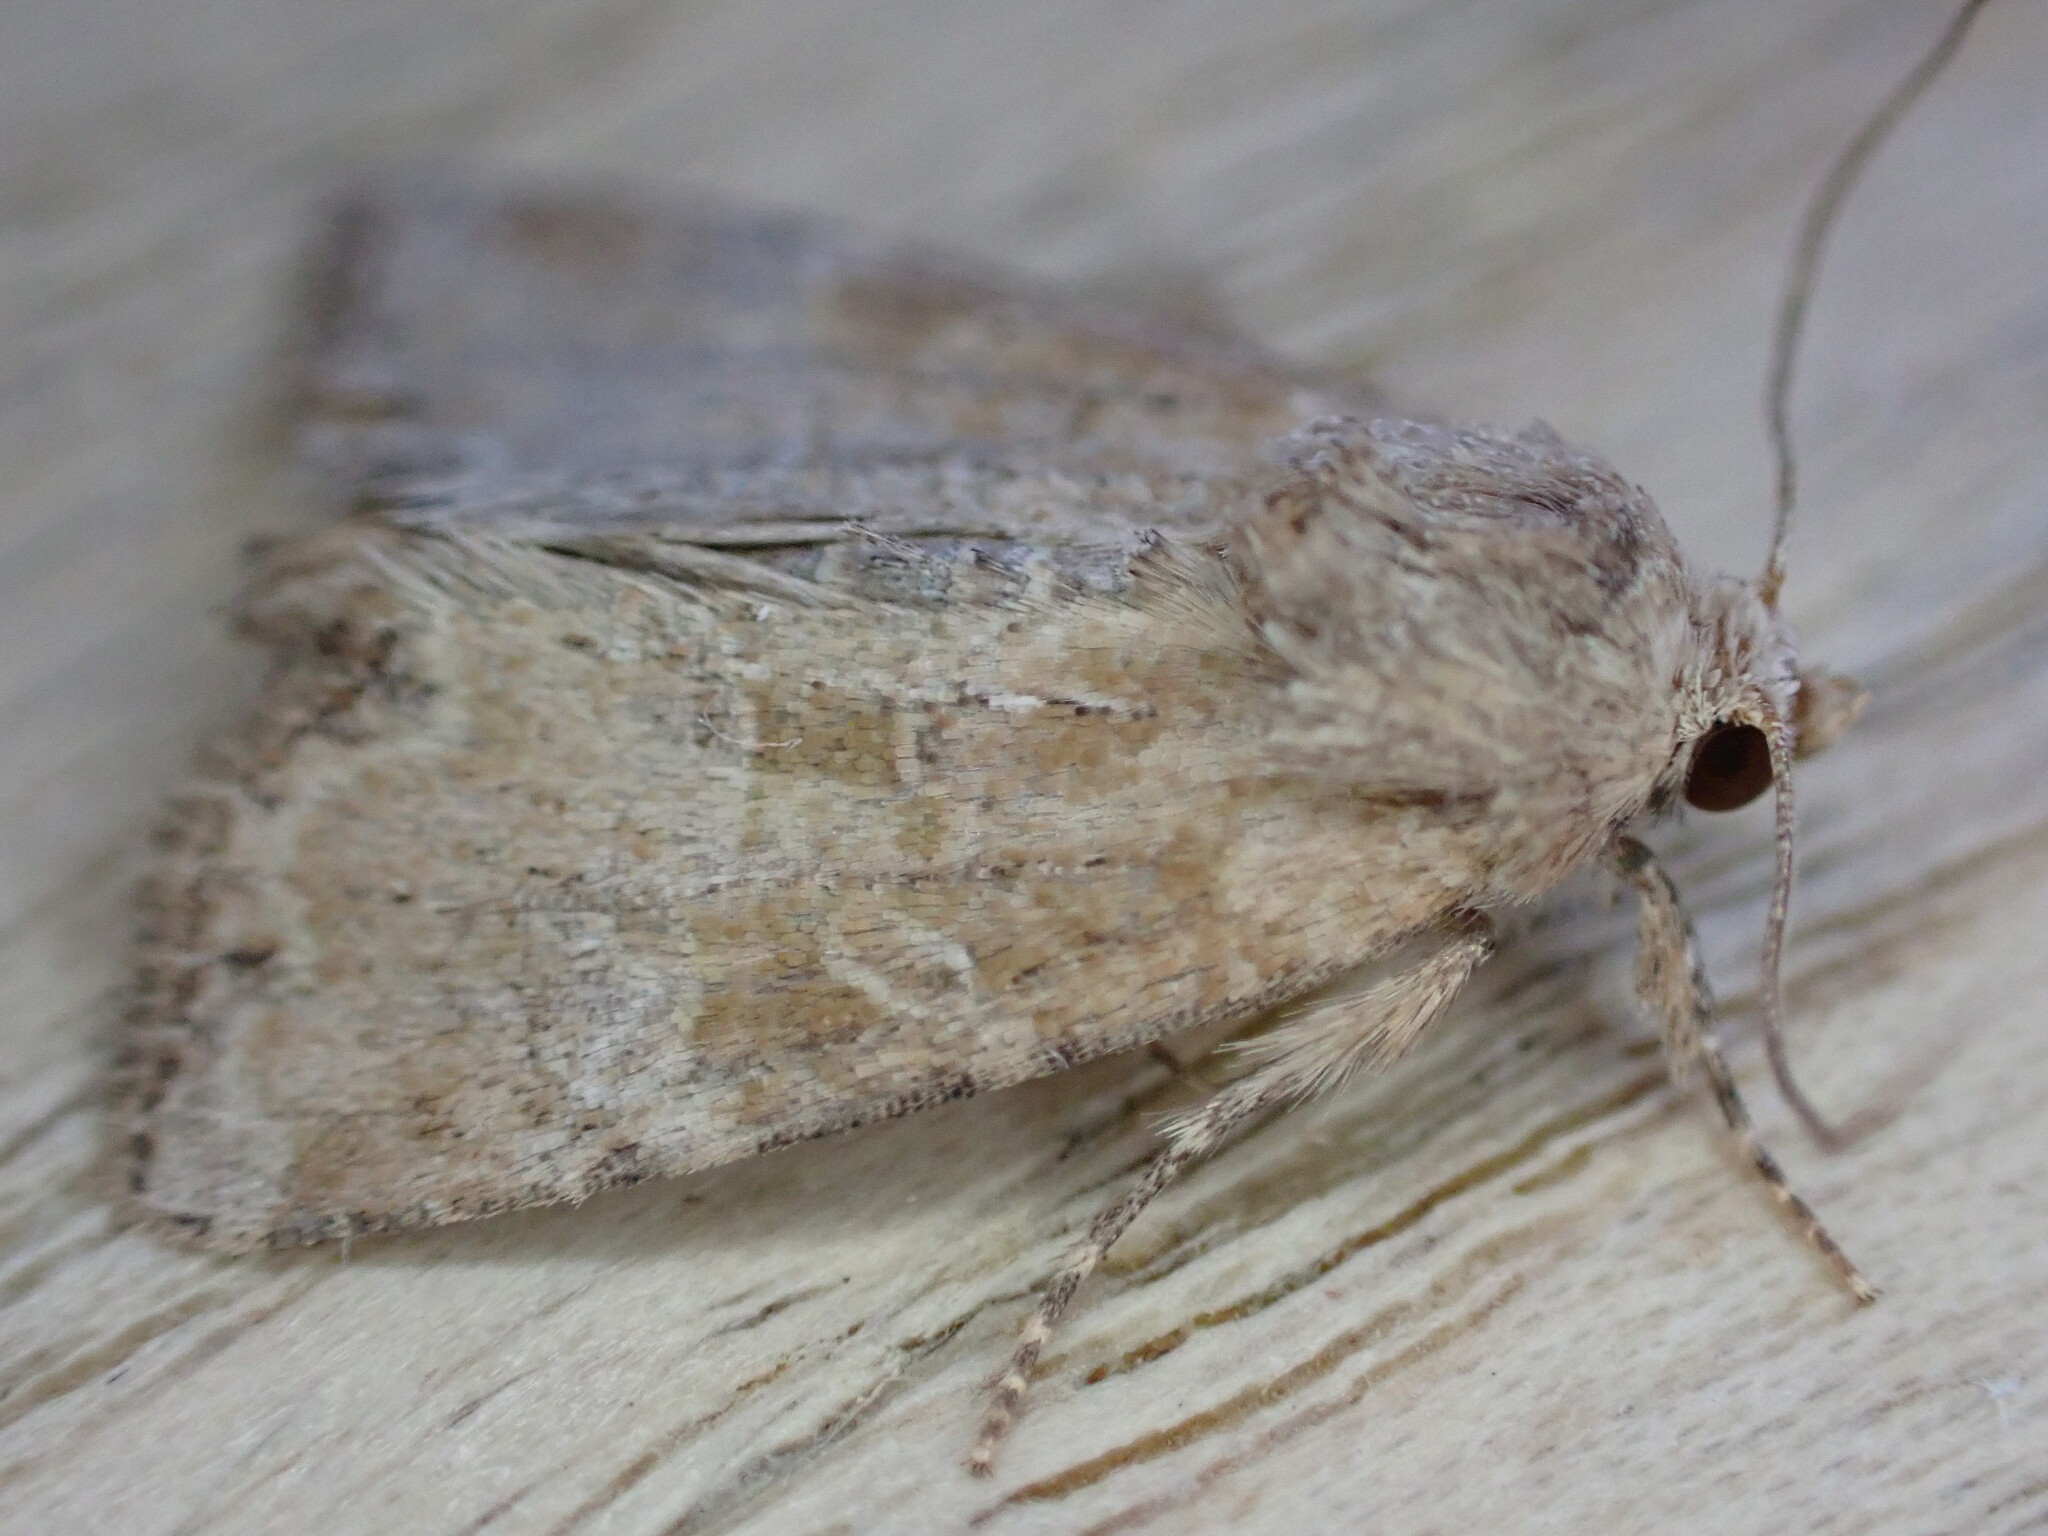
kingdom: Animalia
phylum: Arthropoda
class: Insecta
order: Lepidoptera
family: Noctuidae
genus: Mesoligia
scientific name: Mesoligia furuncula
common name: Cloaked minor
